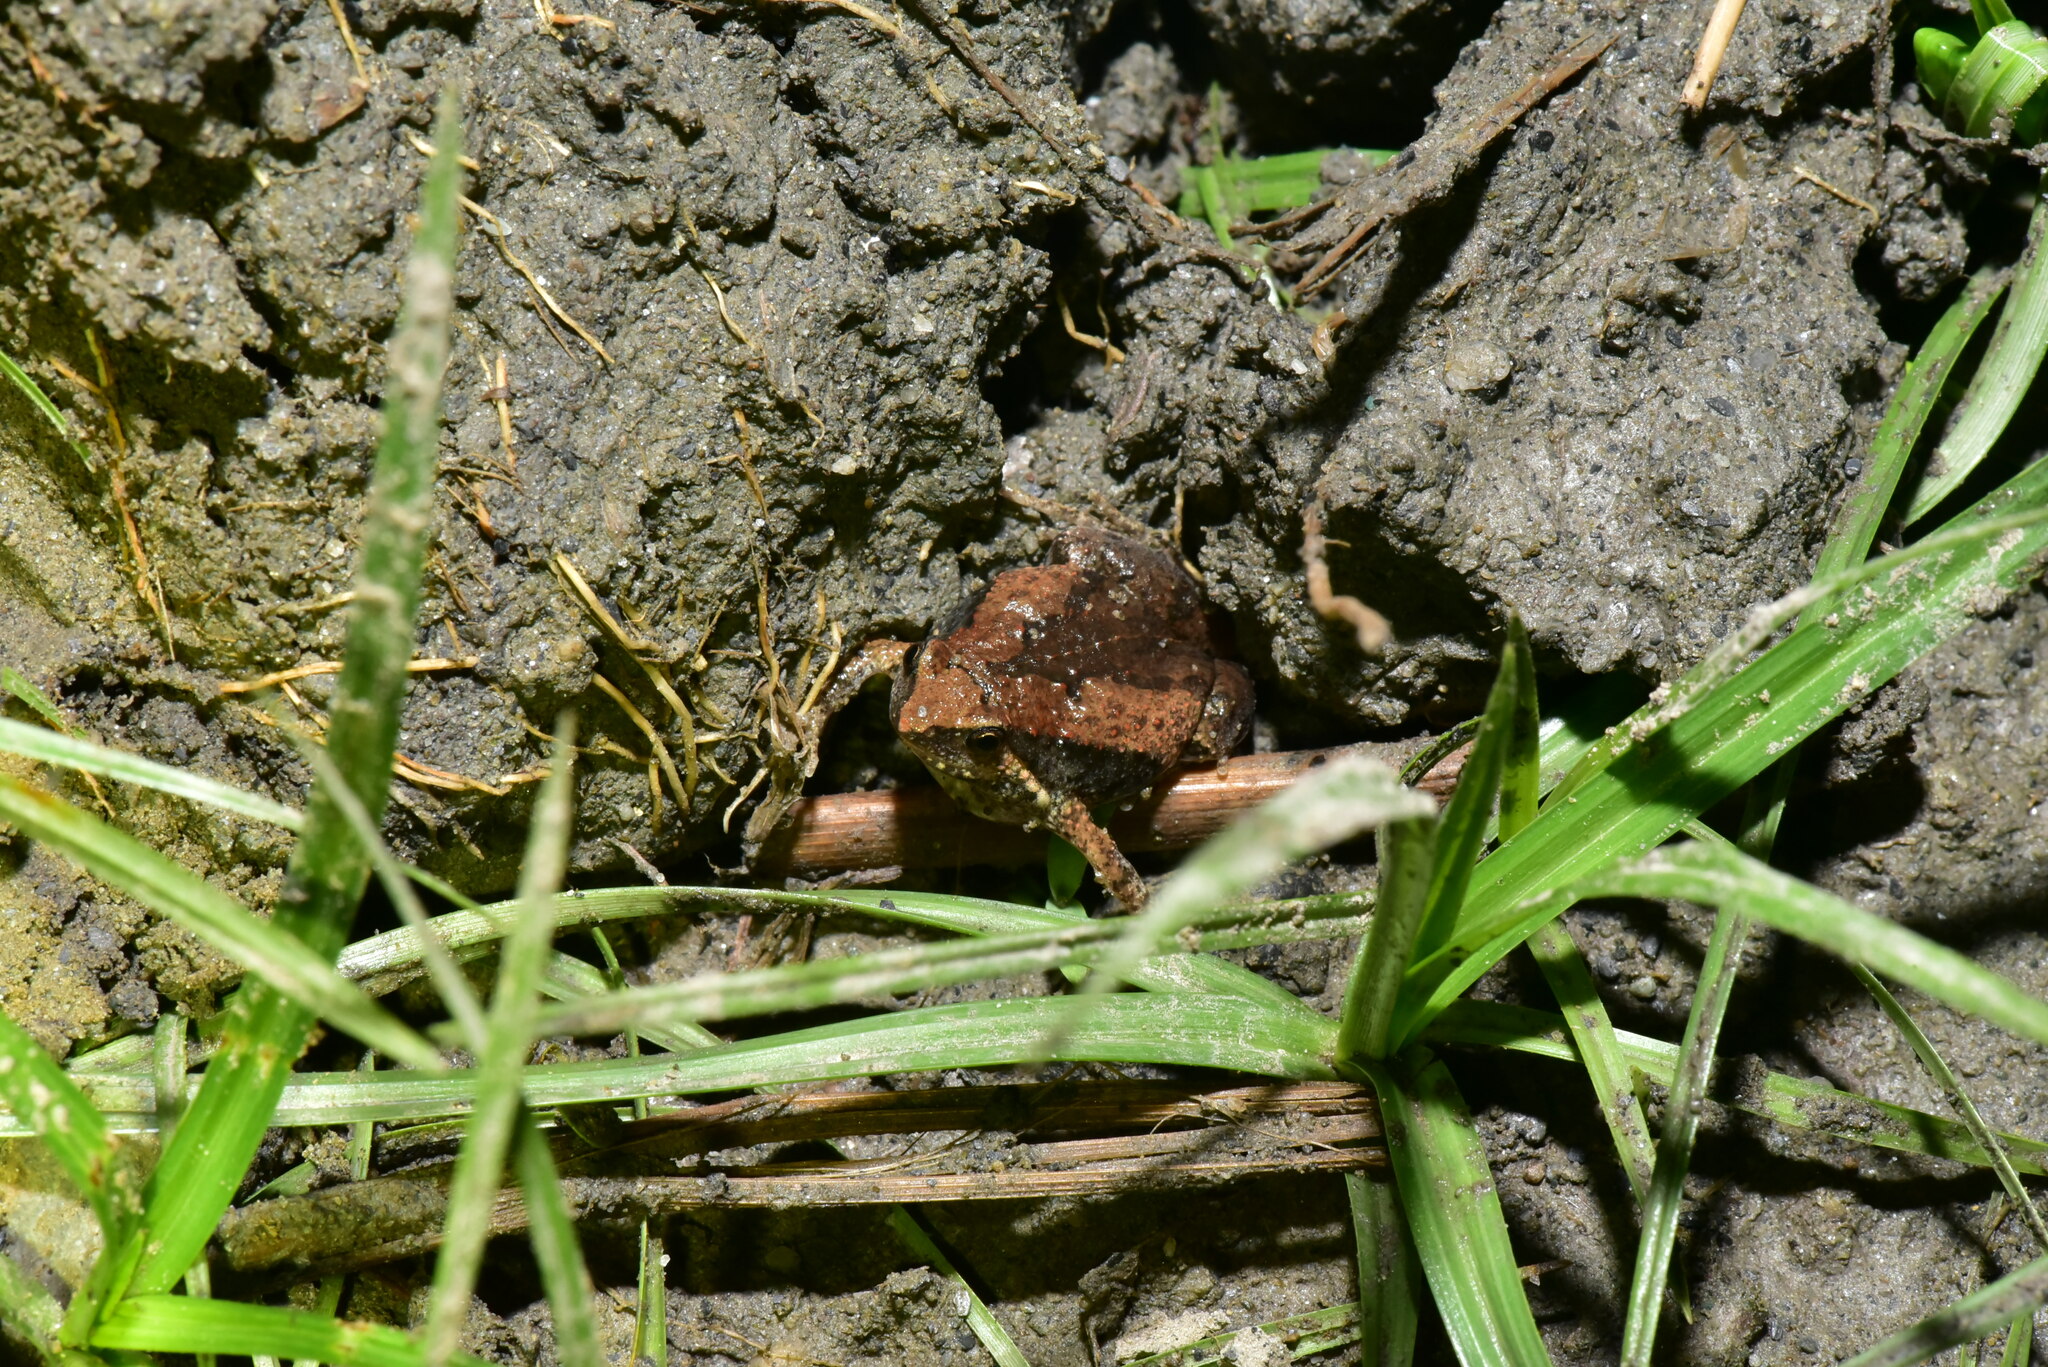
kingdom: Animalia
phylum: Chordata
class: Amphibia
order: Anura
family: Microhylidae
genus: Microhyla
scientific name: Microhyla fissipes
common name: Ornate narrow-mouthed frog
